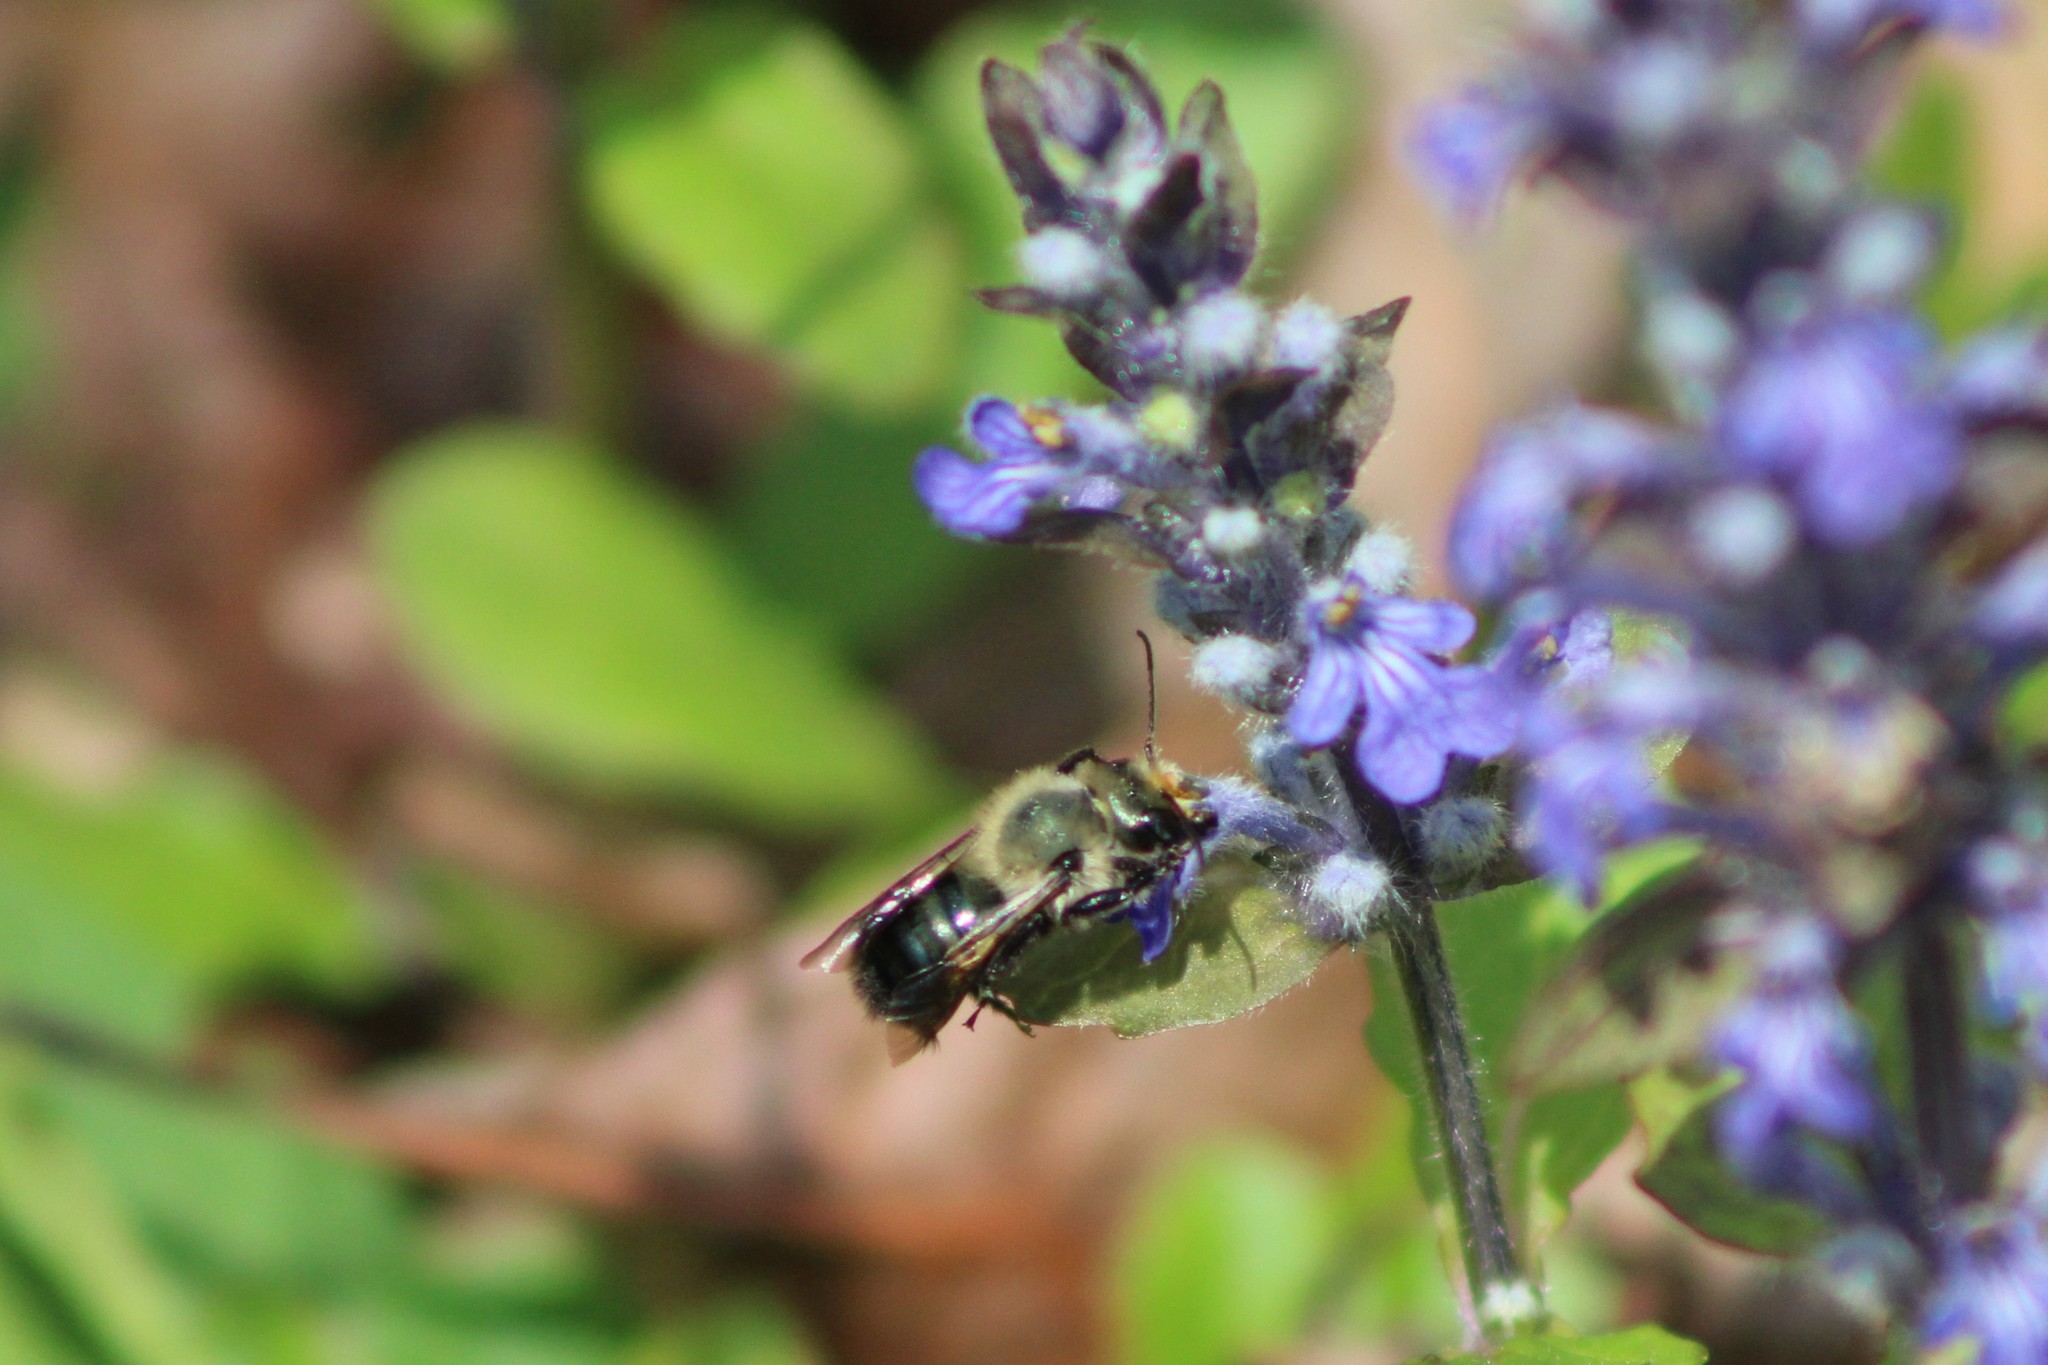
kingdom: Animalia
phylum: Arthropoda
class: Insecta
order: Hymenoptera
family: Megachilidae
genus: Osmia
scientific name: Osmia bucephala
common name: Bufflehead mason bee
